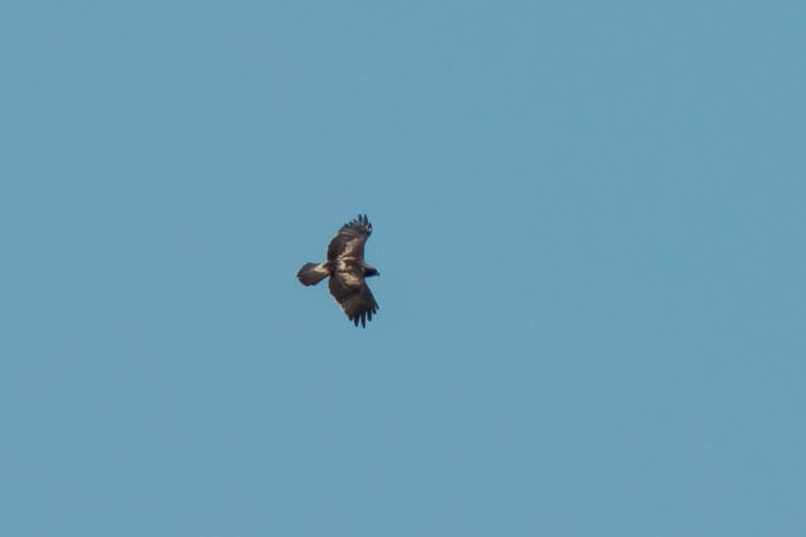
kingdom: Animalia
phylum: Chordata
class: Aves
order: Accipitriformes
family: Accipitridae
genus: Hieraaetus
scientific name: Hieraaetus pennatus
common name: Booted eagle
